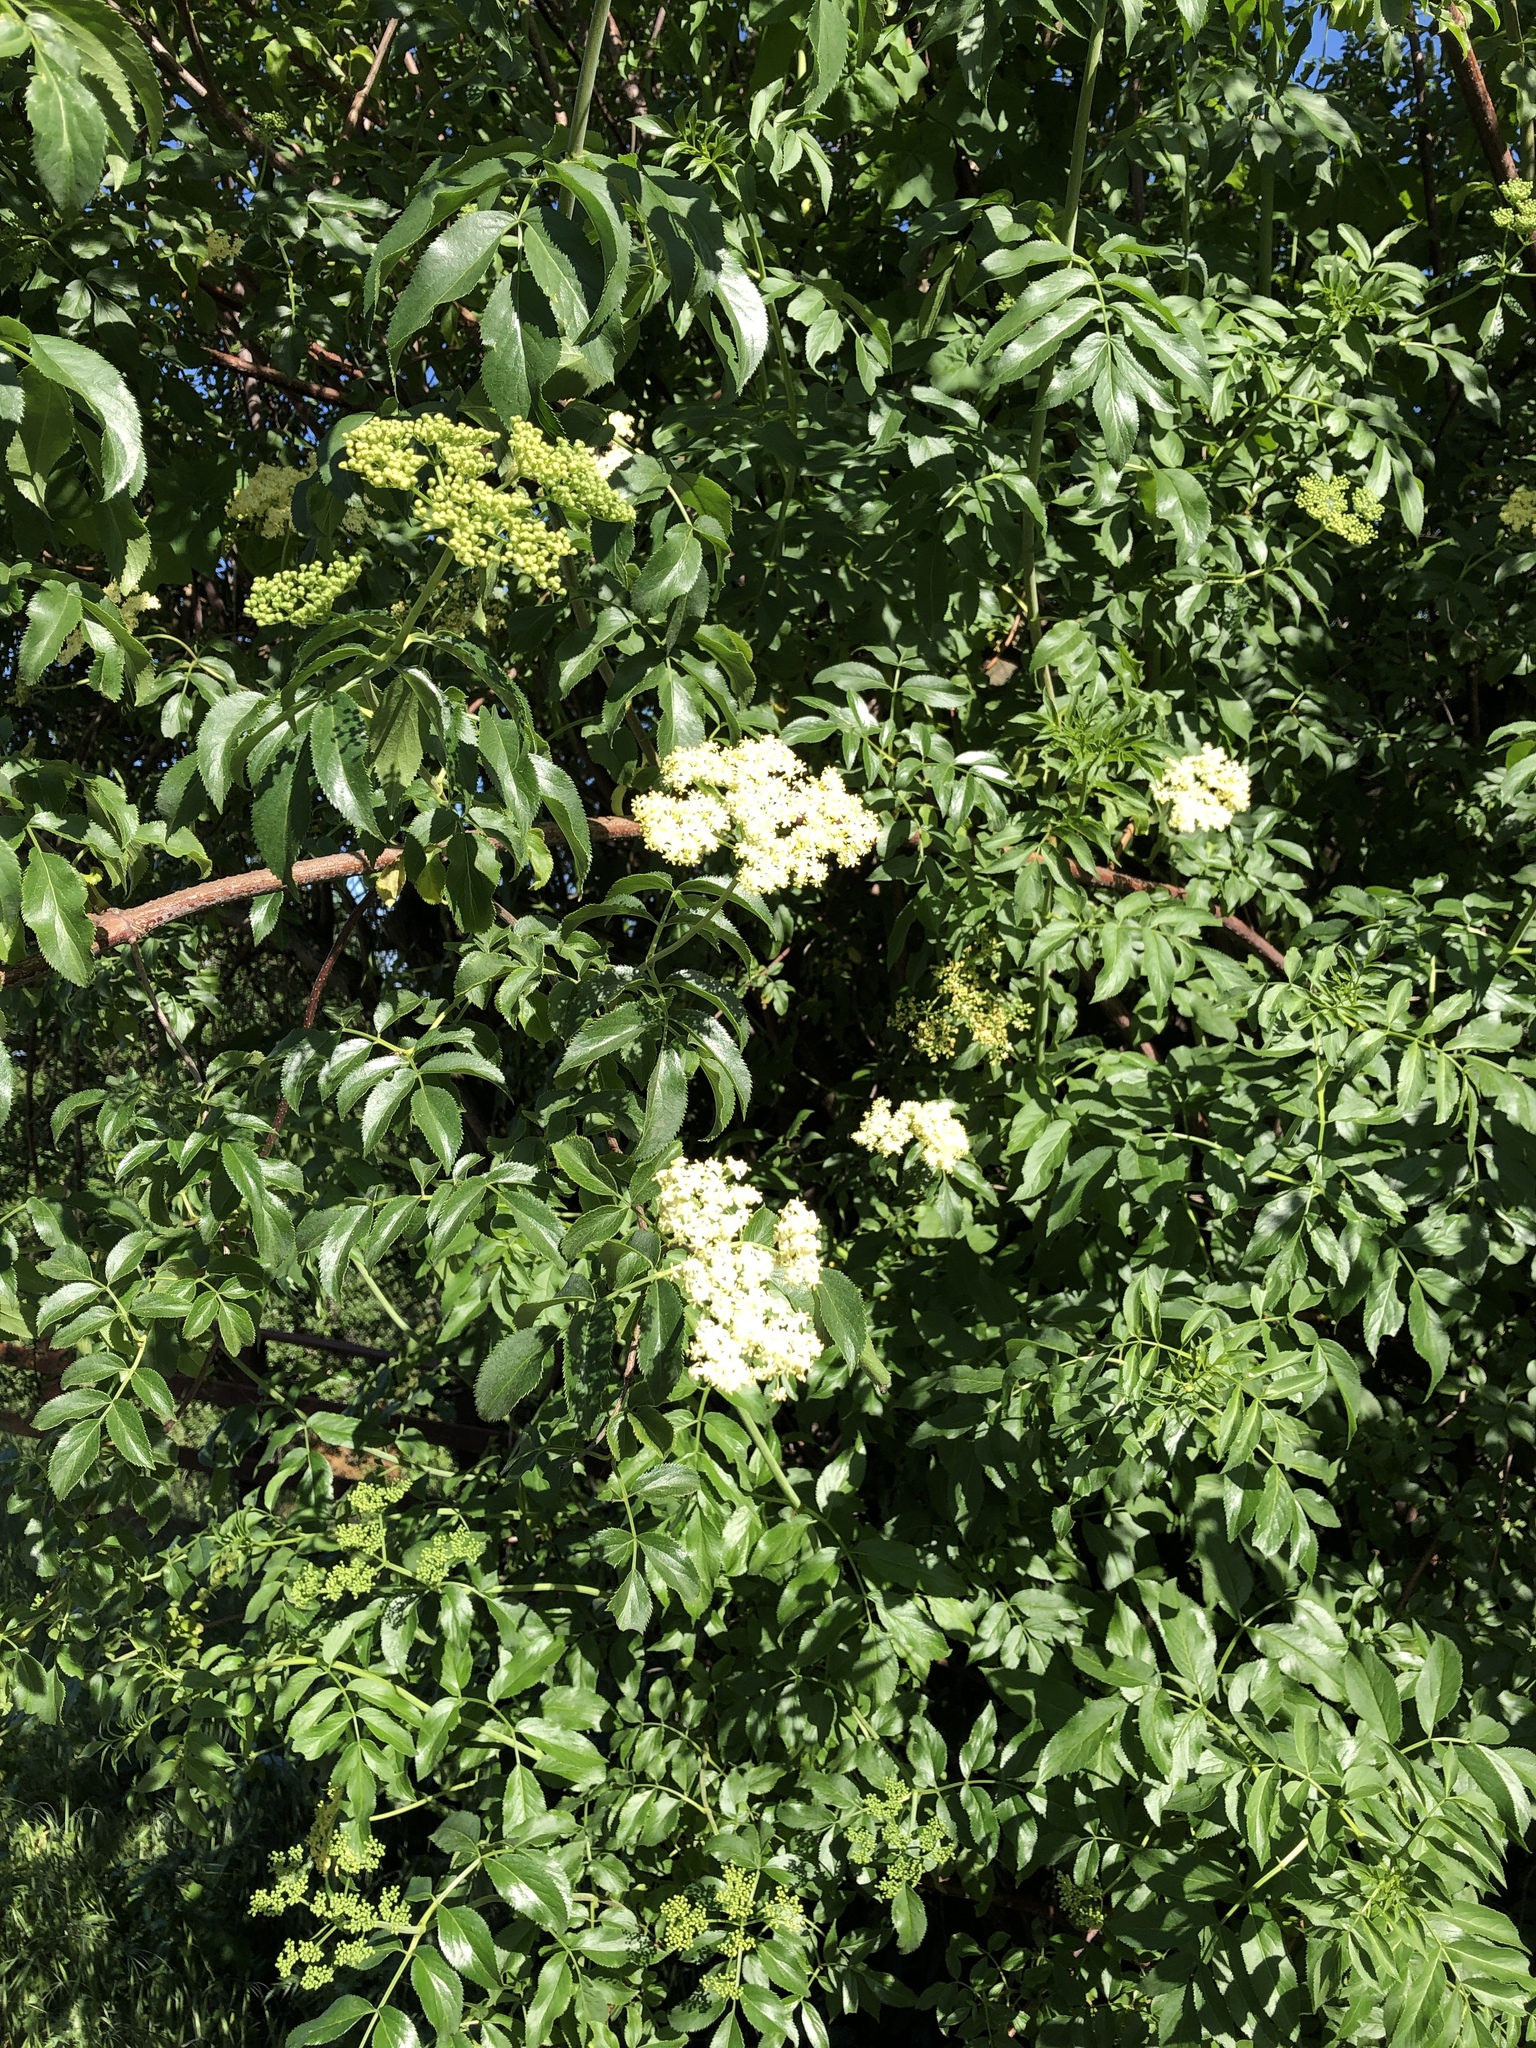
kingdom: Plantae
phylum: Tracheophyta
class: Magnoliopsida
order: Dipsacales
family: Viburnaceae
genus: Sambucus
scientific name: Sambucus cerulea
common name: Blue elder
